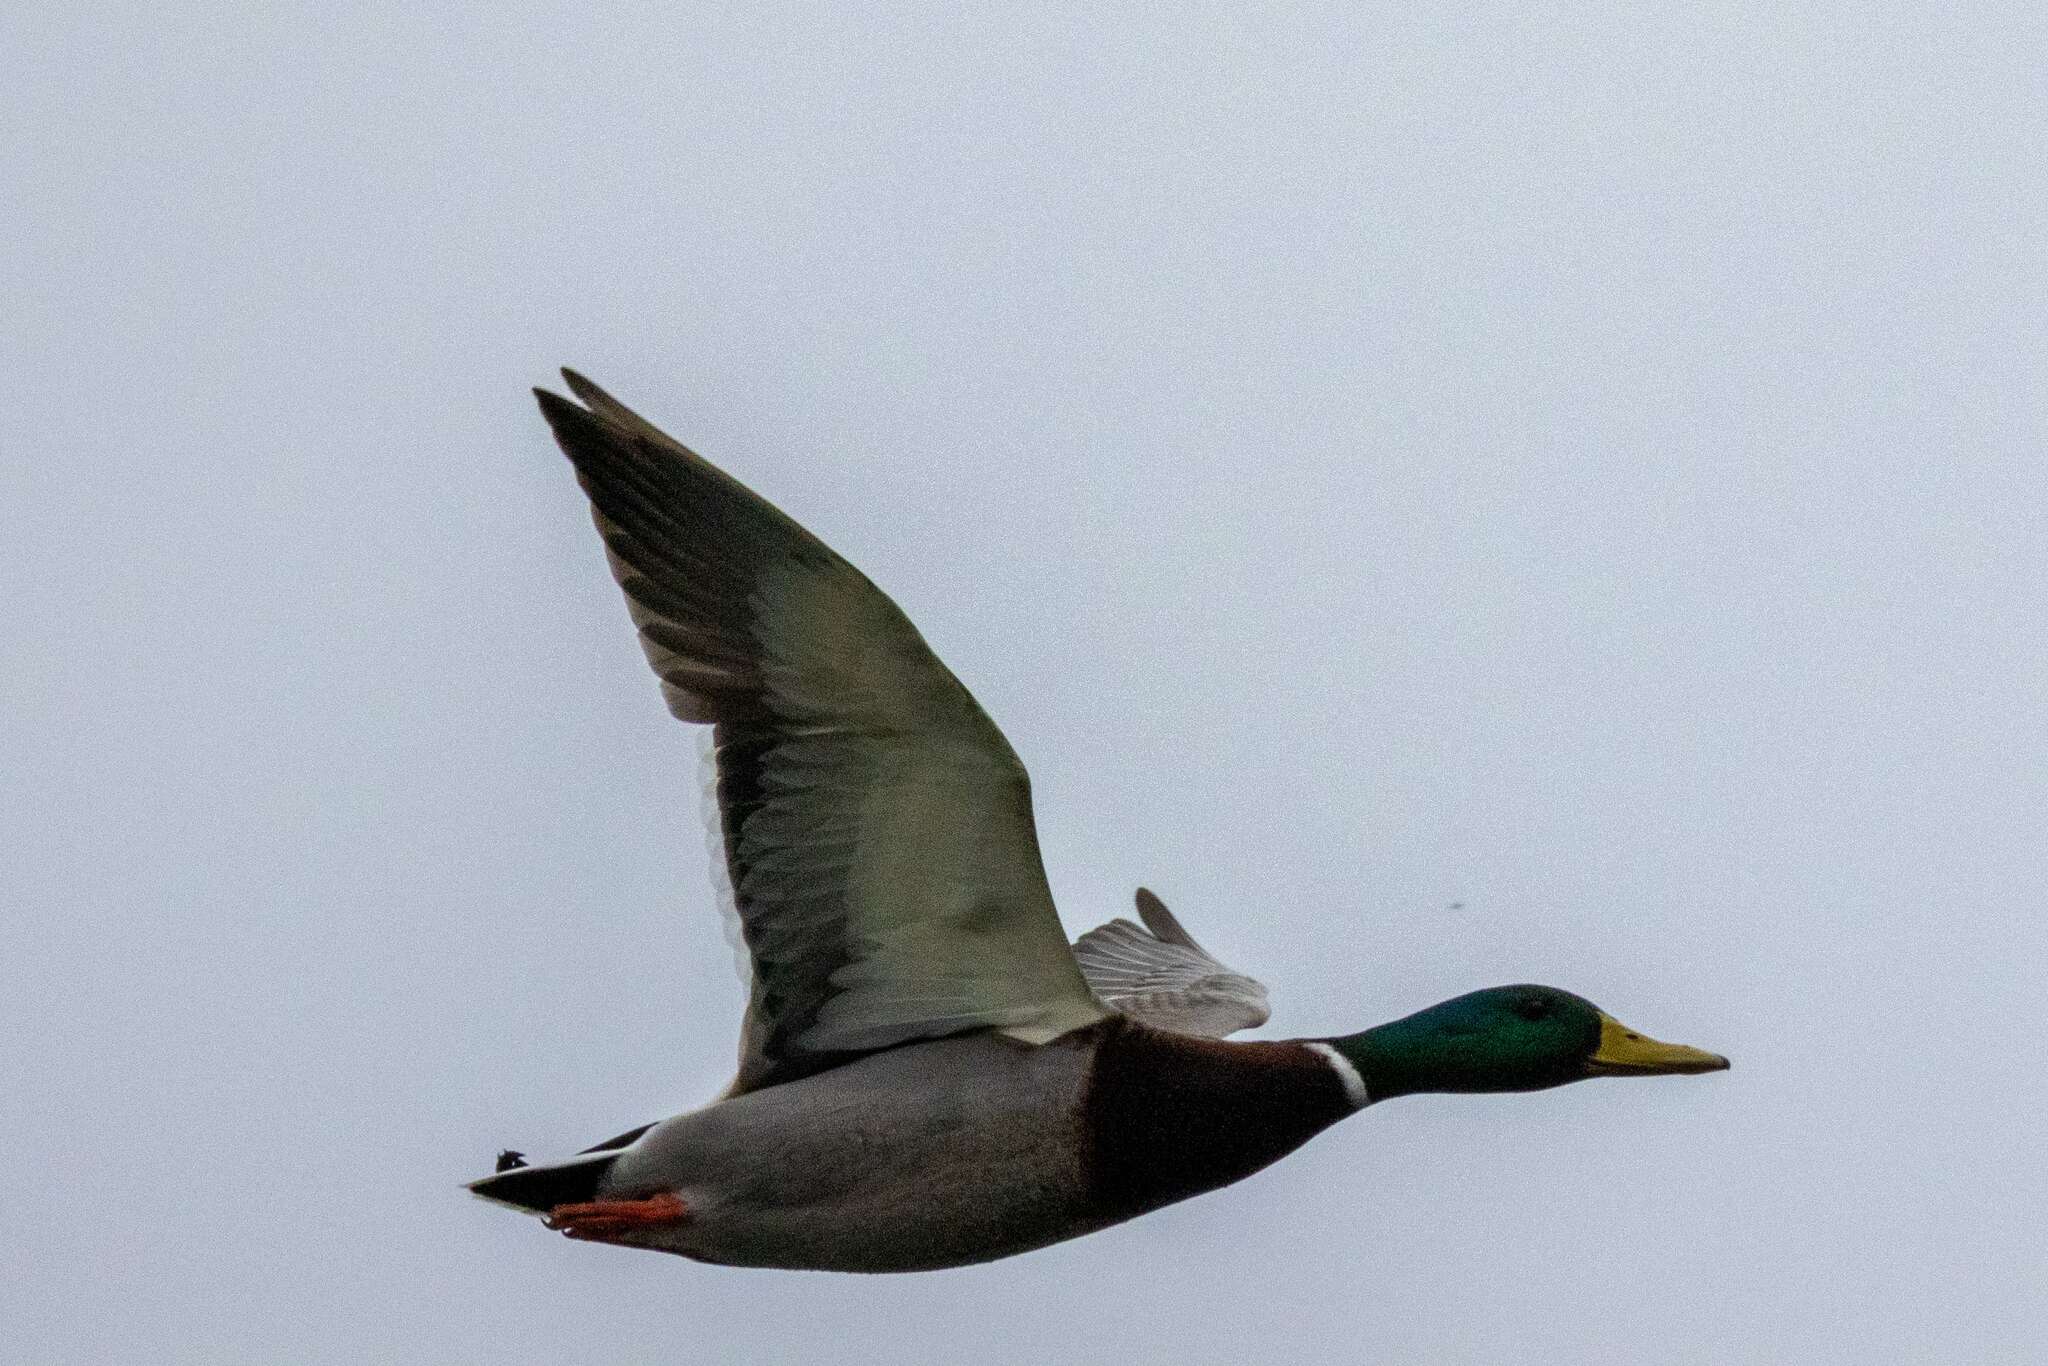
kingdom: Animalia
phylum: Chordata
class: Aves
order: Anseriformes
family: Anatidae
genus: Anas
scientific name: Anas platyrhynchos
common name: Mallard
